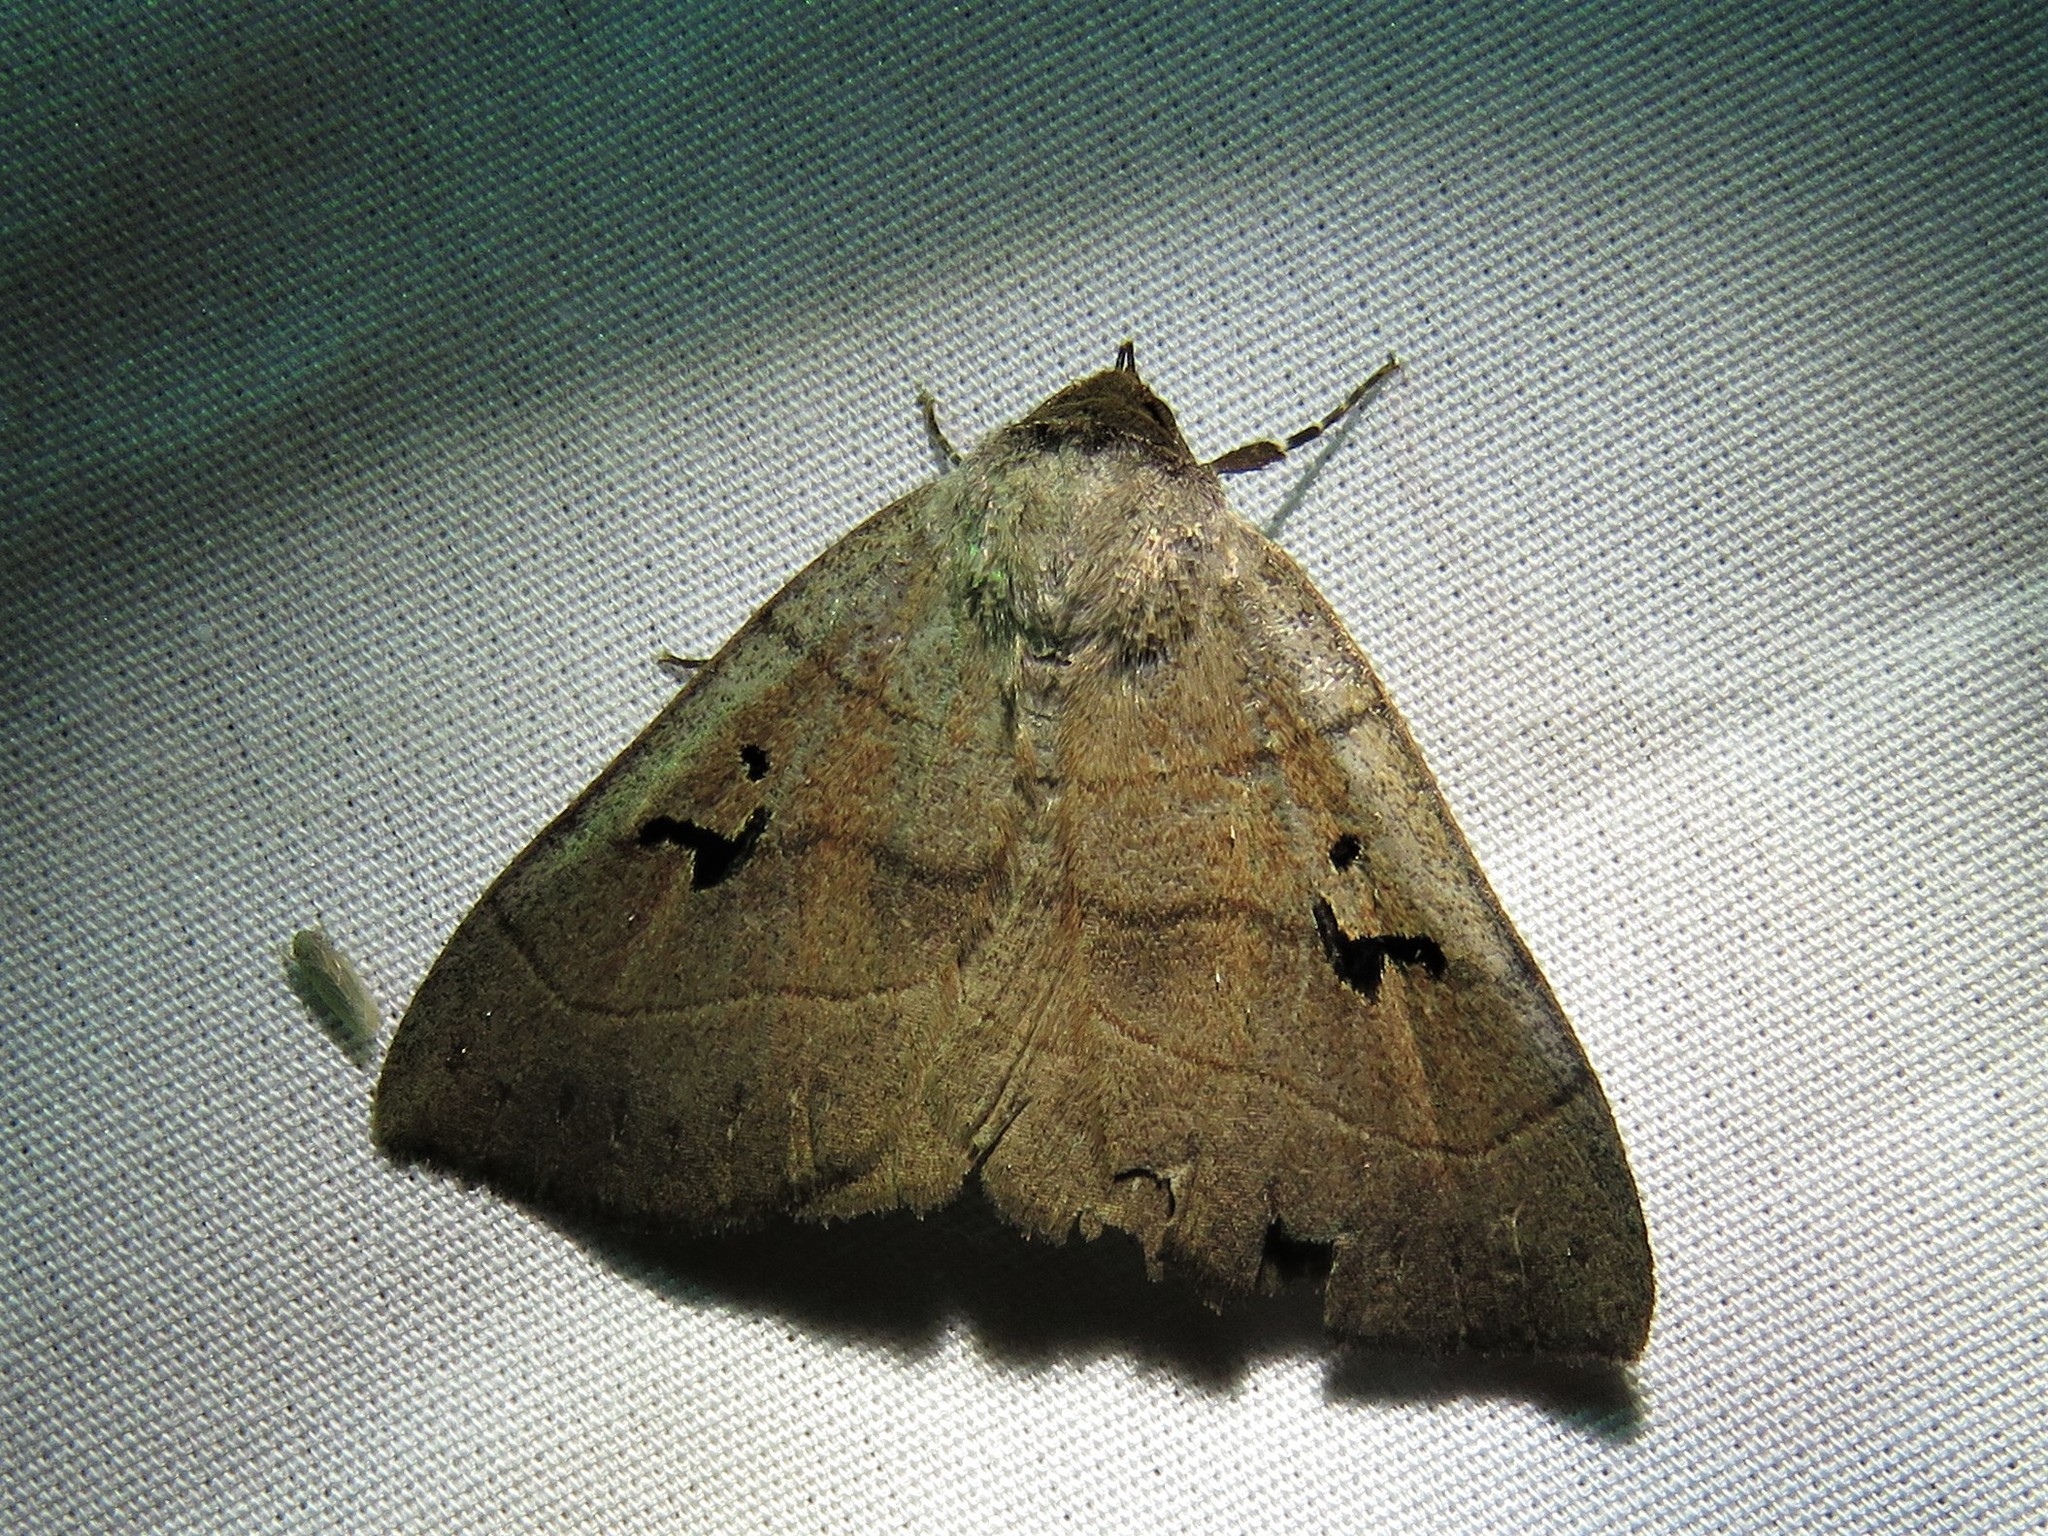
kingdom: Animalia
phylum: Arthropoda
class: Insecta
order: Lepidoptera
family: Erebidae
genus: Panopoda
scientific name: Panopoda carneicosta
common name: Brown panopoda moth
